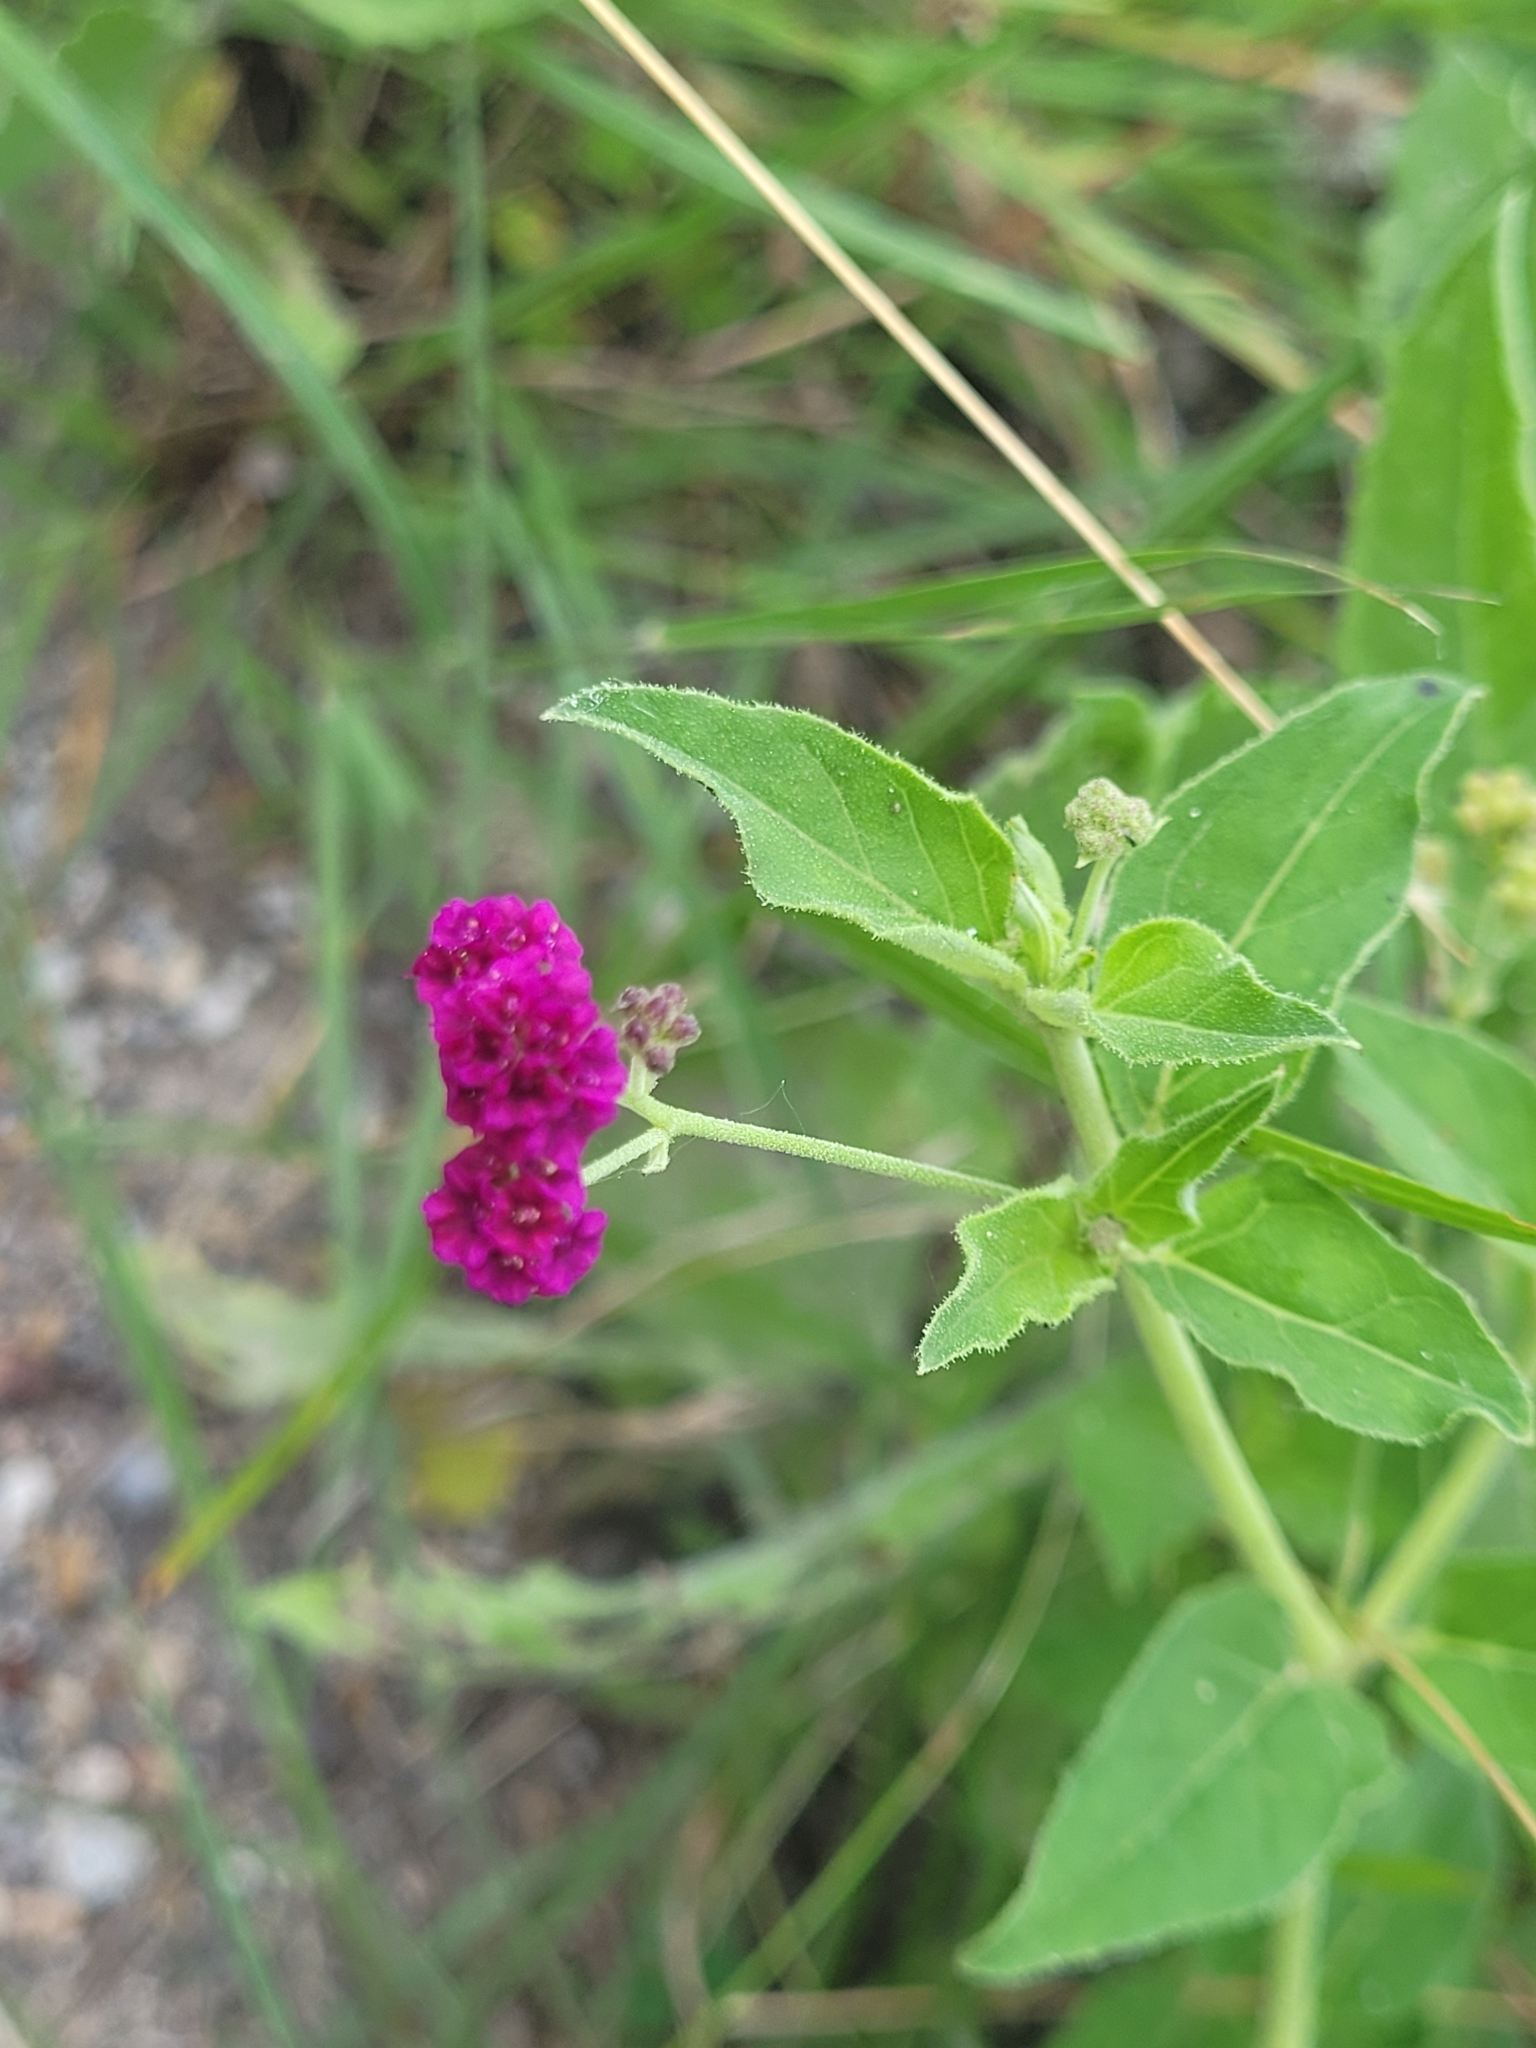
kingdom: Plantae
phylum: Tracheophyta
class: Magnoliopsida
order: Caryophyllales
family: Nyctaginaceae
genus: Boerhavia
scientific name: Boerhavia coccinea
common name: Scarlet spiderling
